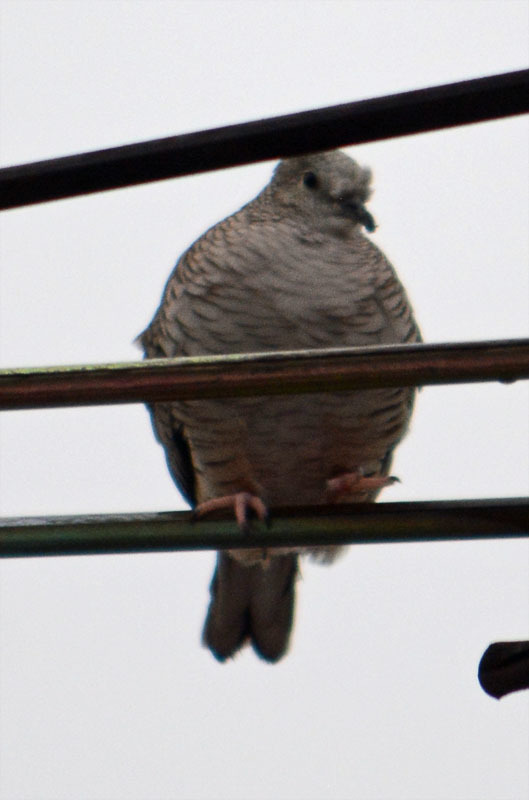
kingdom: Animalia
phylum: Chordata
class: Aves
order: Columbiformes
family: Columbidae
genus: Columbina
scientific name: Columbina inca
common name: Inca dove
